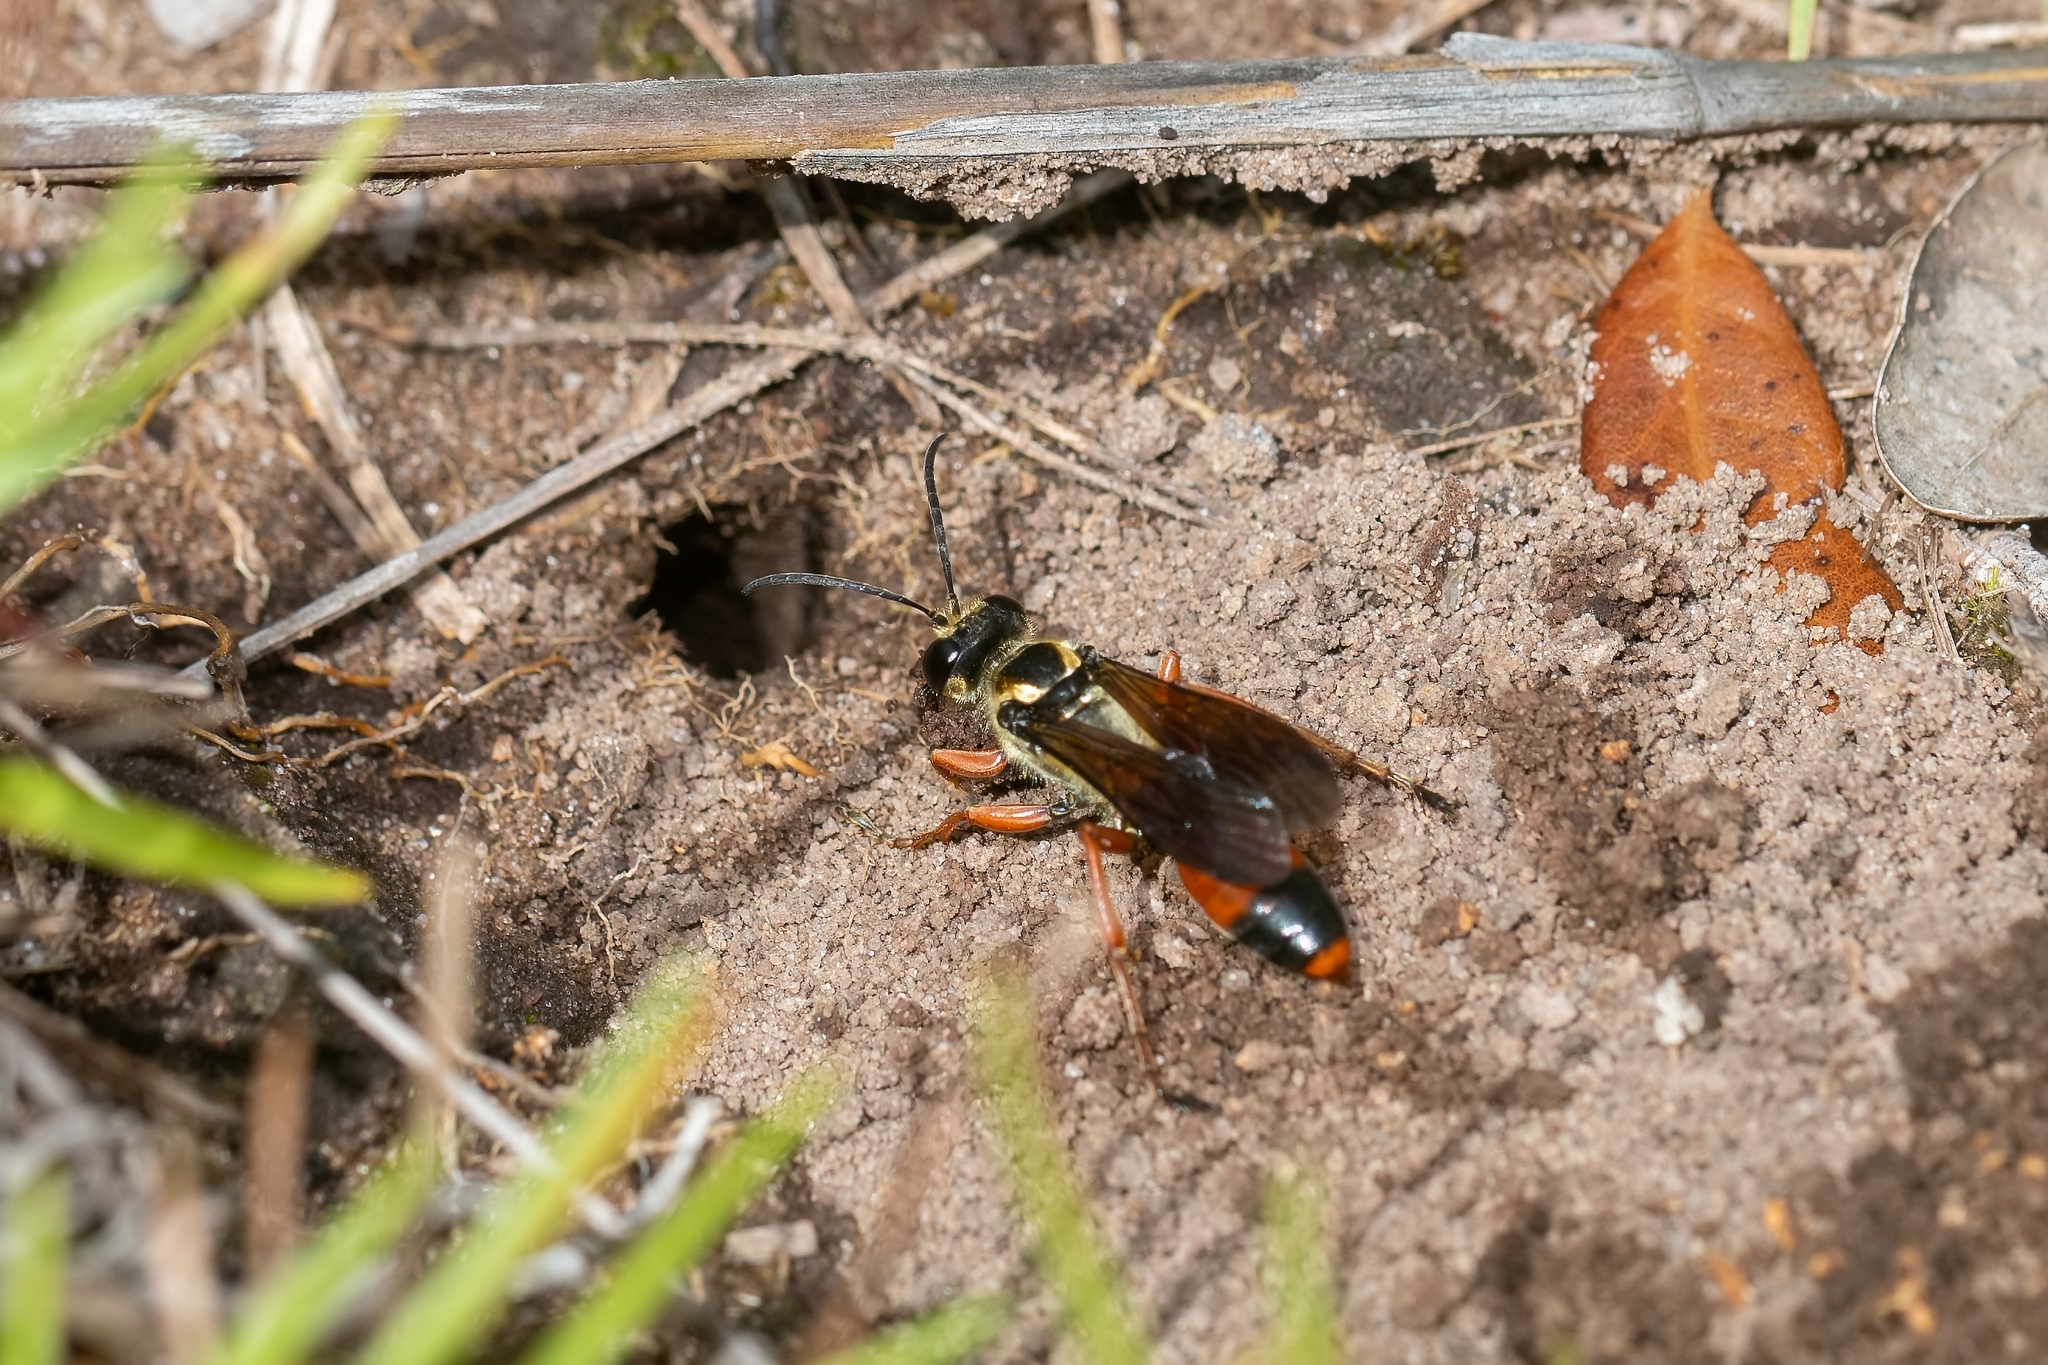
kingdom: Animalia
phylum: Arthropoda
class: Insecta
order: Hymenoptera
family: Sphecidae
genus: Sphex
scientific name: Sphex dorsalis
